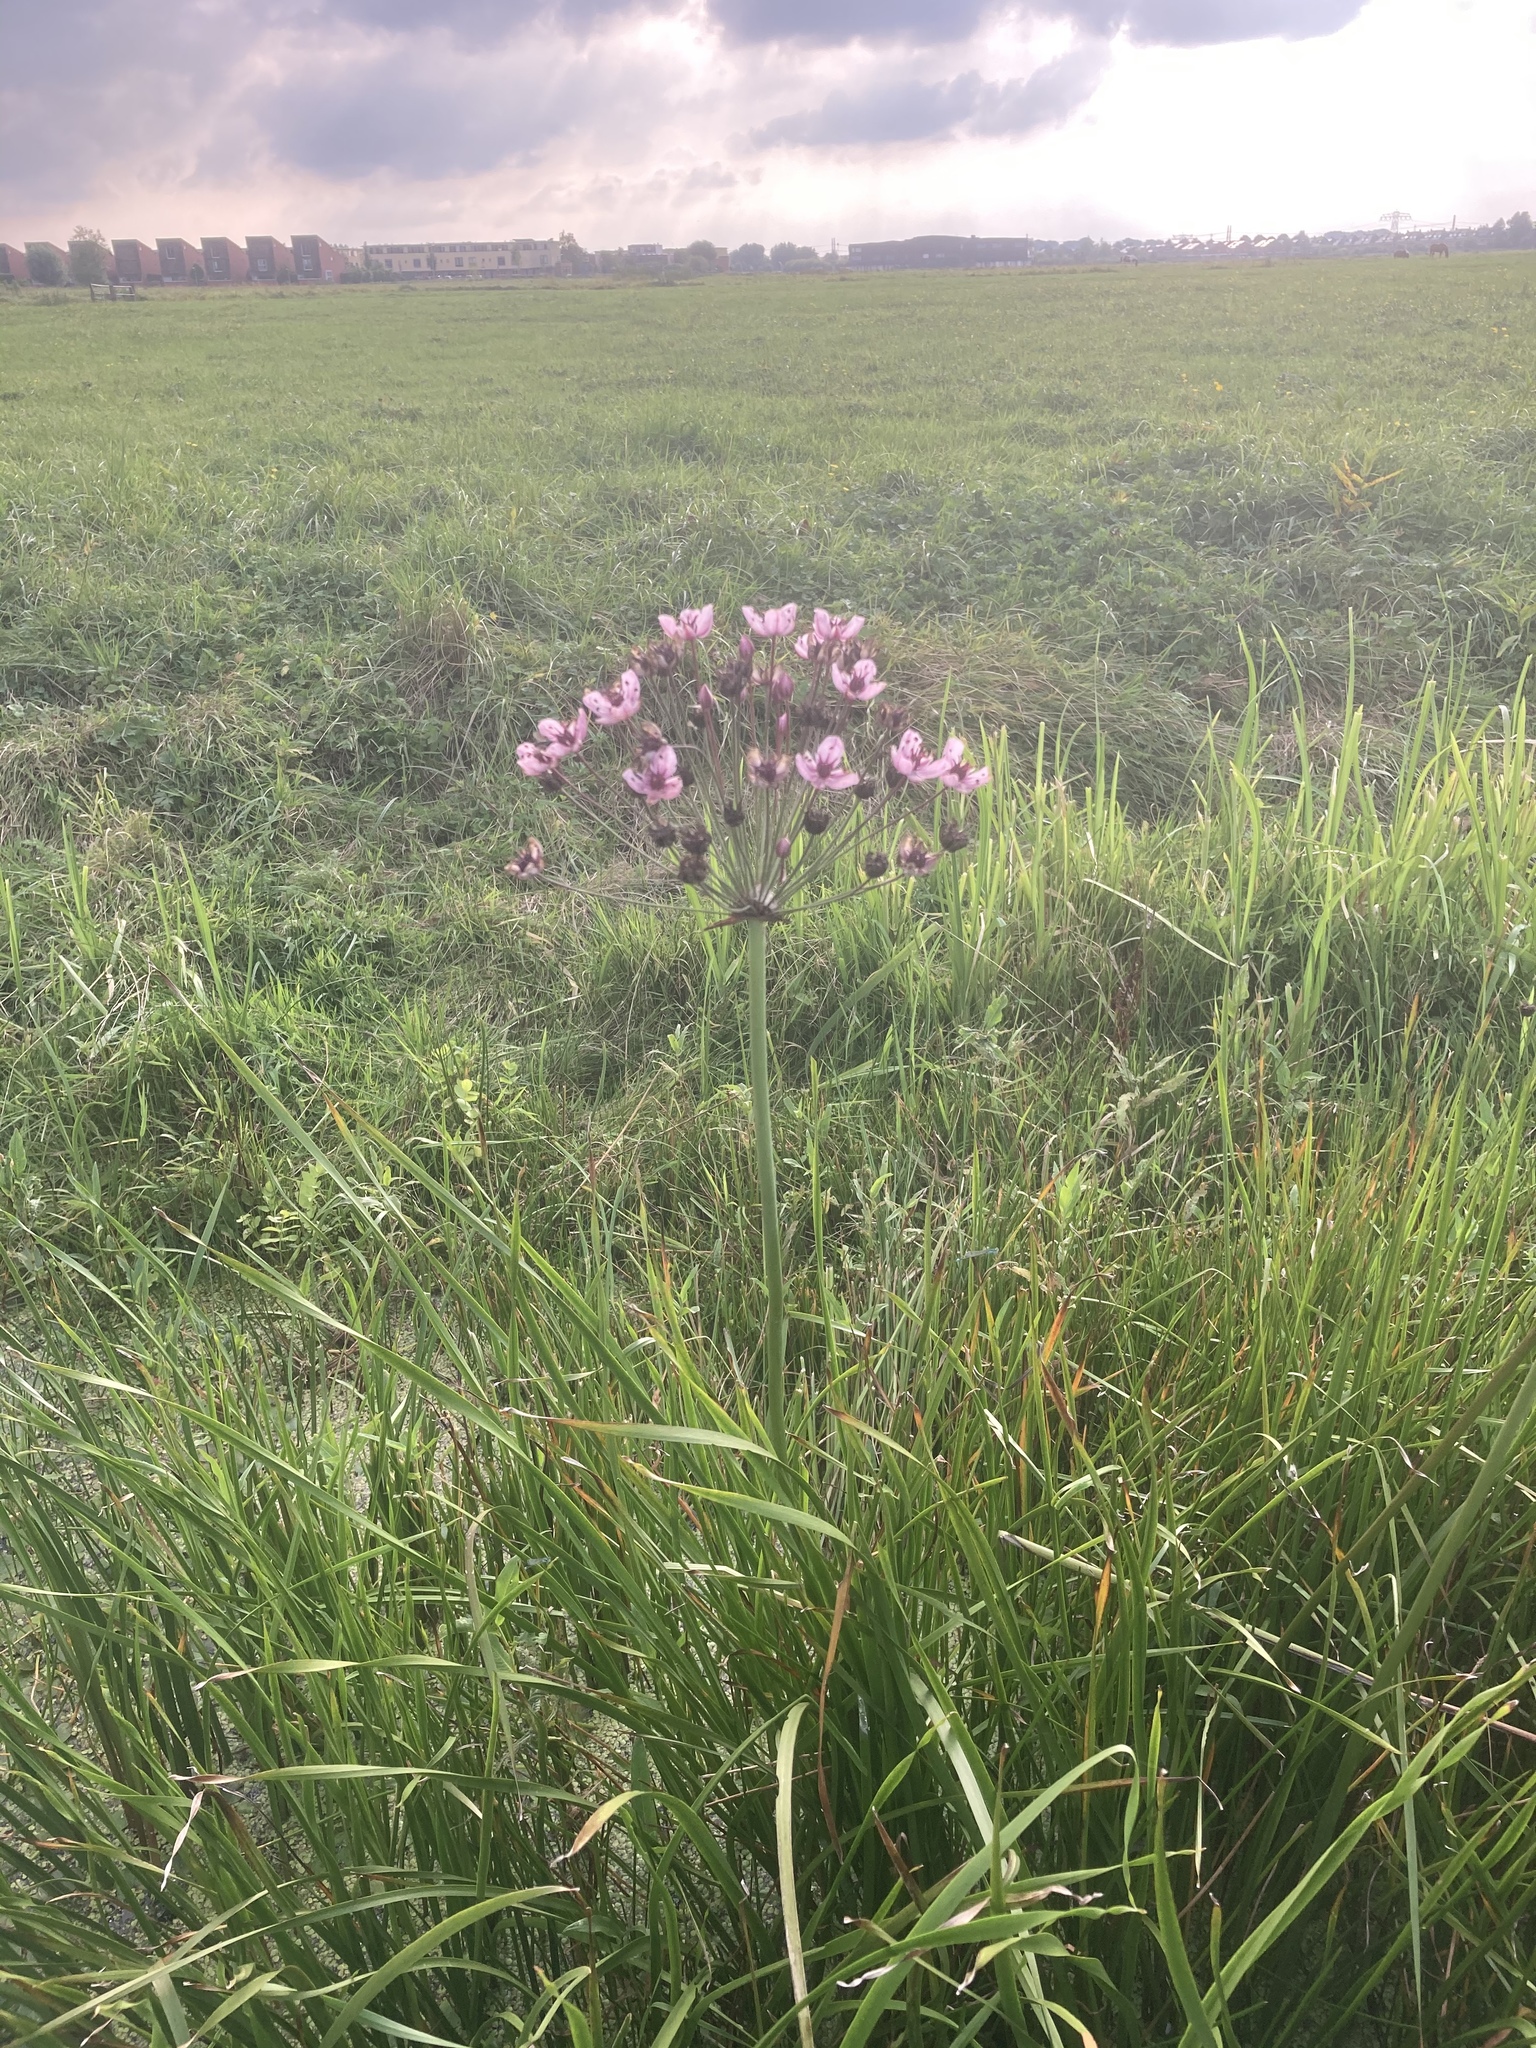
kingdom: Plantae
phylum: Tracheophyta
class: Liliopsida
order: Alismatales
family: Butomaceae
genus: Butomus
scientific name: Butomus umbellatus
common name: Flowering-rush
